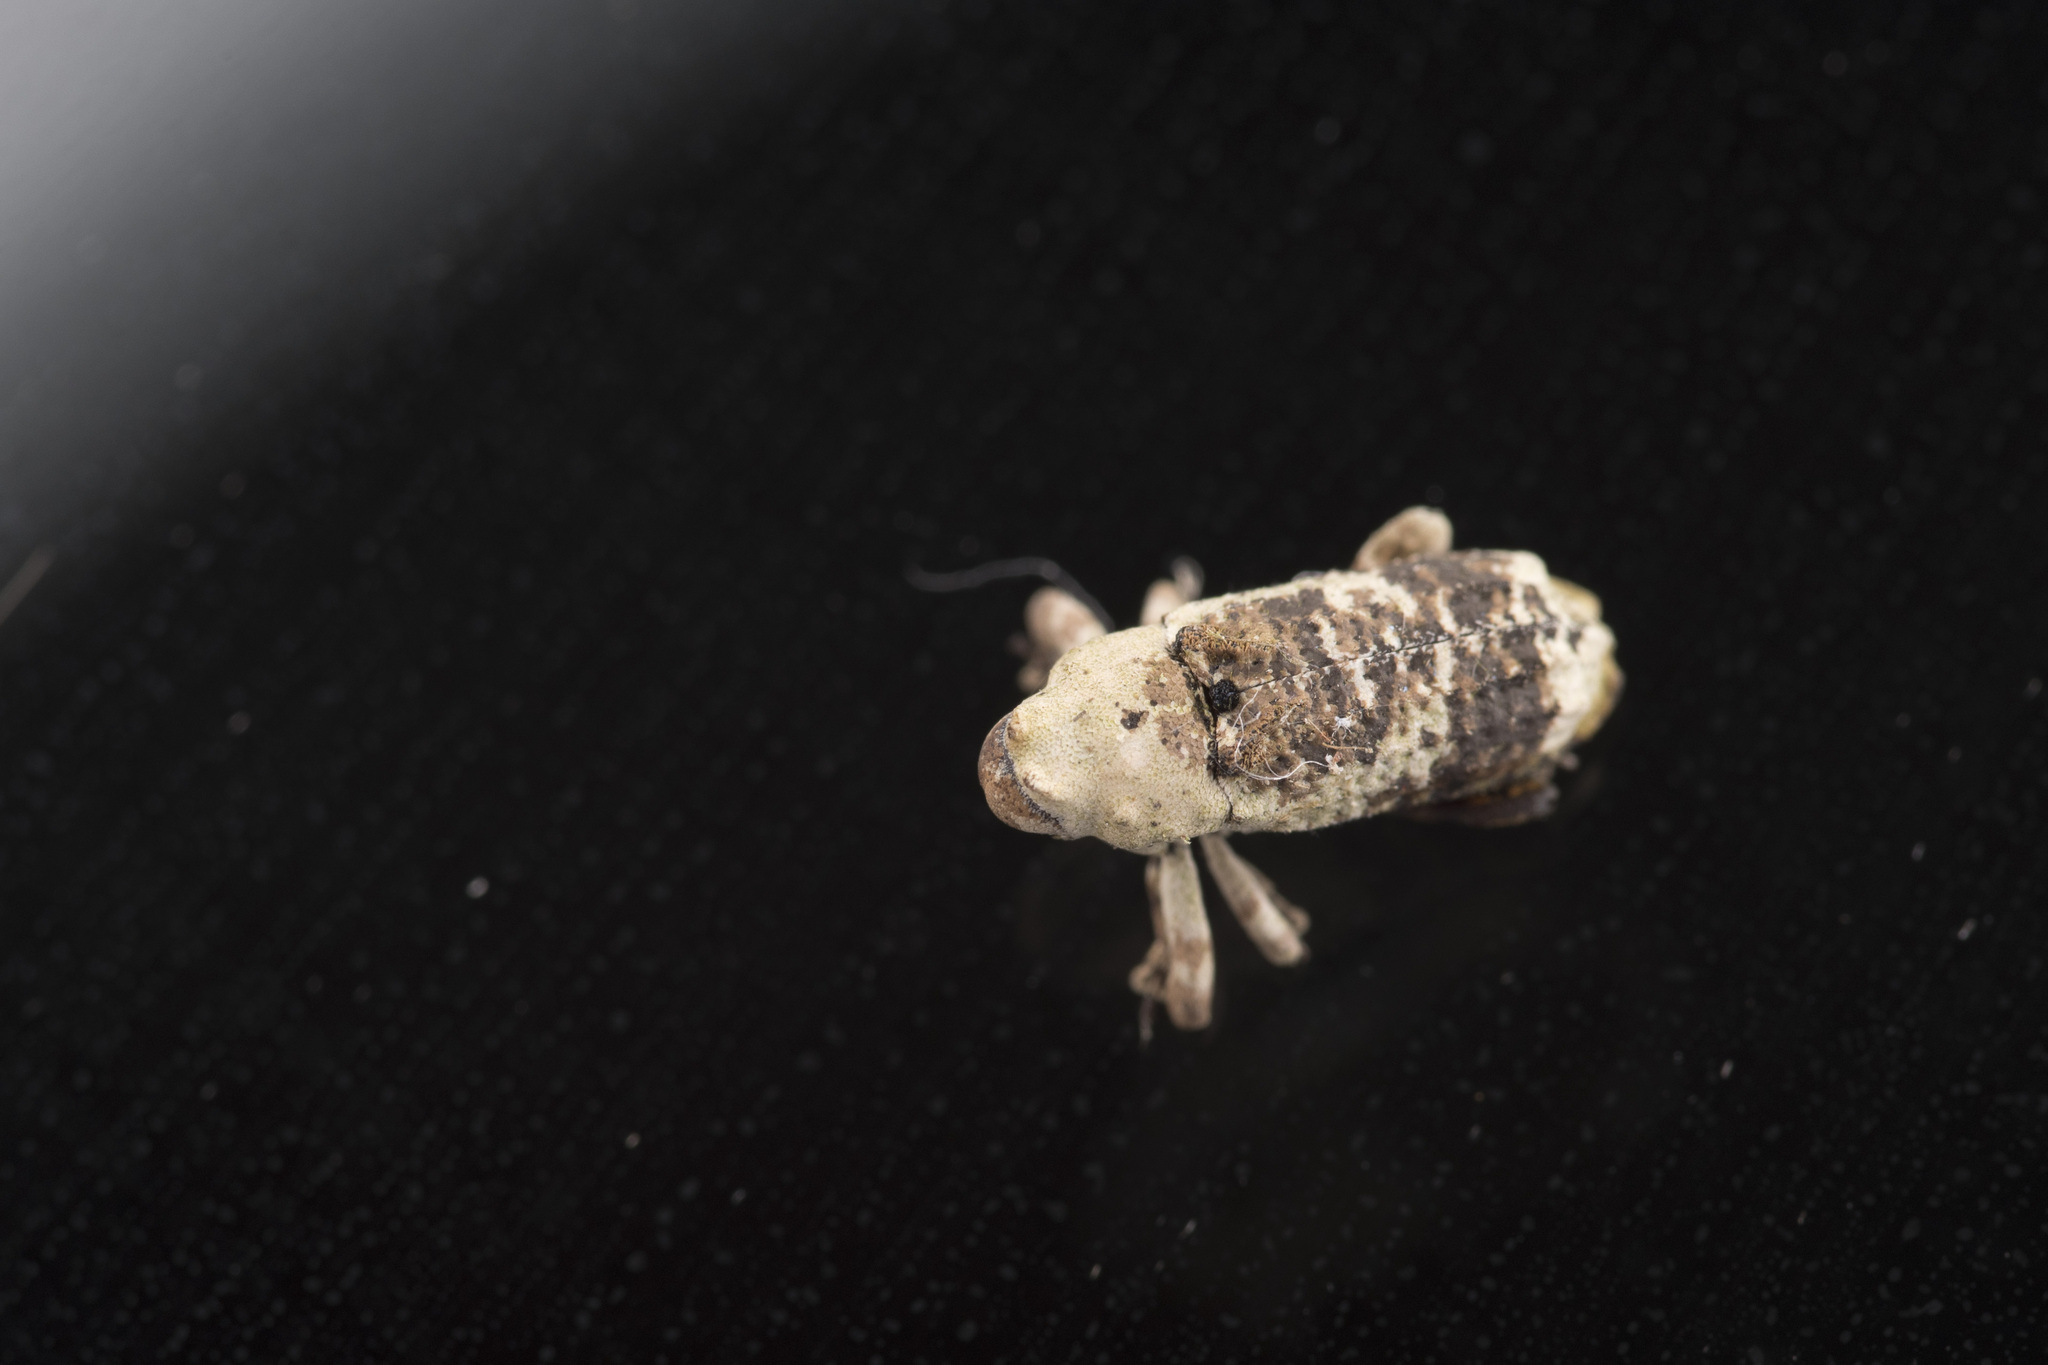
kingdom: Animalia
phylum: Arthropoda
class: Insecta
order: Coleoptera
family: Curculionidae
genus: Gasterocercus
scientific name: Gasterocercus onizo
